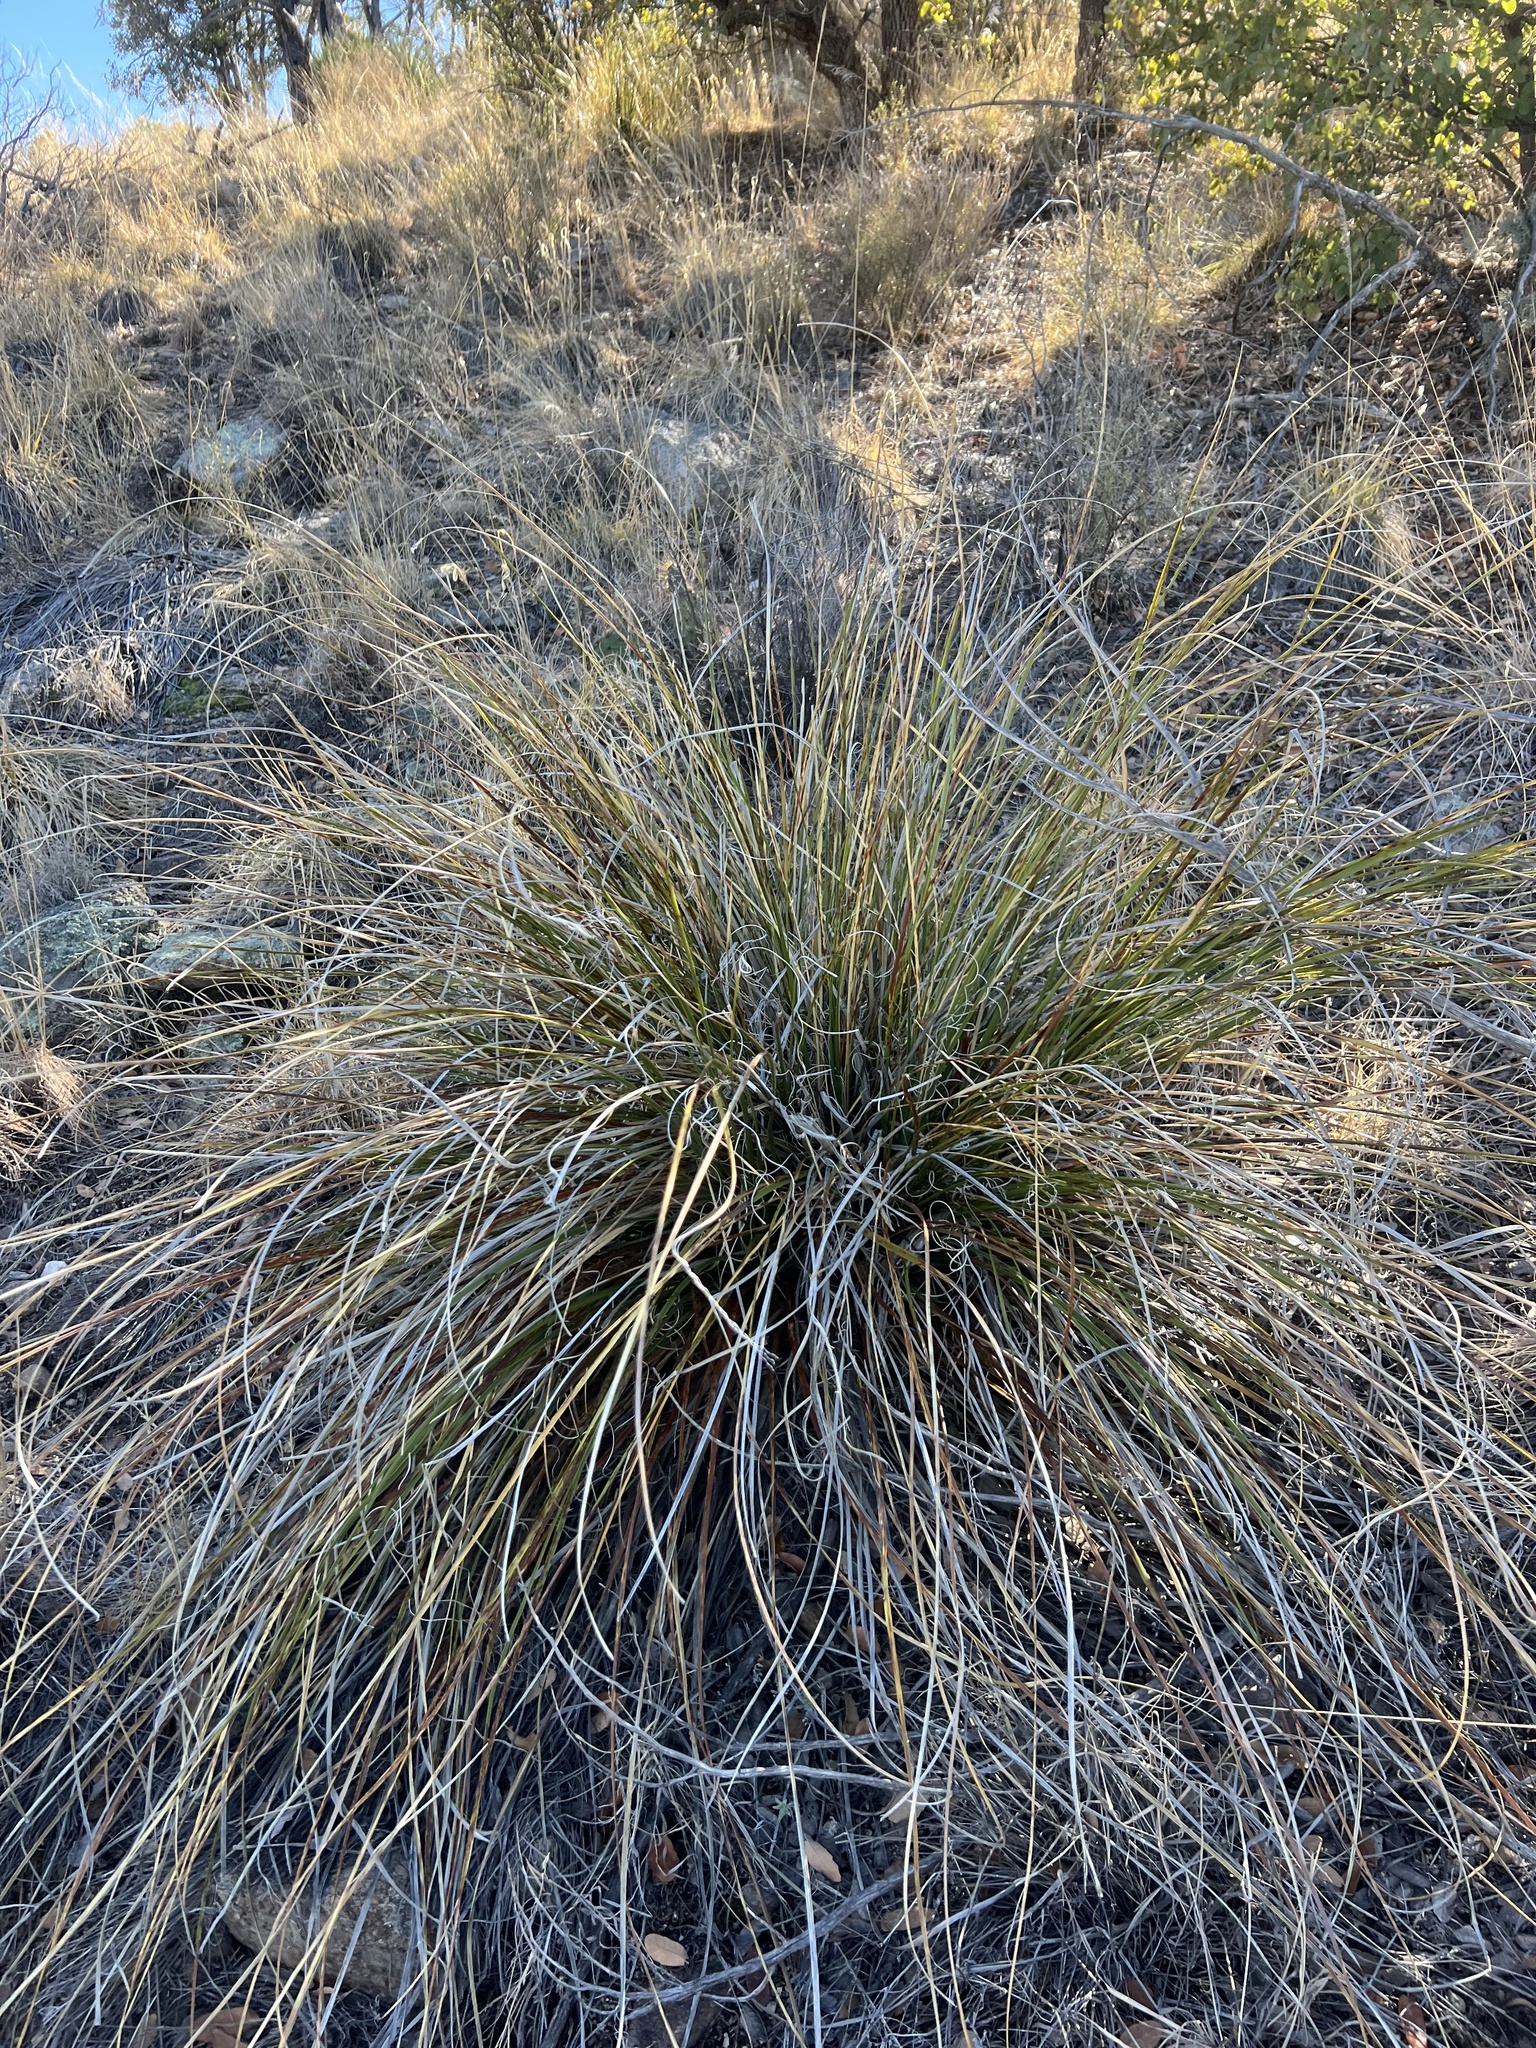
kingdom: Plantae
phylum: Tracheophyta
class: Liliopsida
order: Asparagales
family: Asparagaceae
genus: Nolina
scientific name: Nolina microcarpa
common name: Bear-grass
